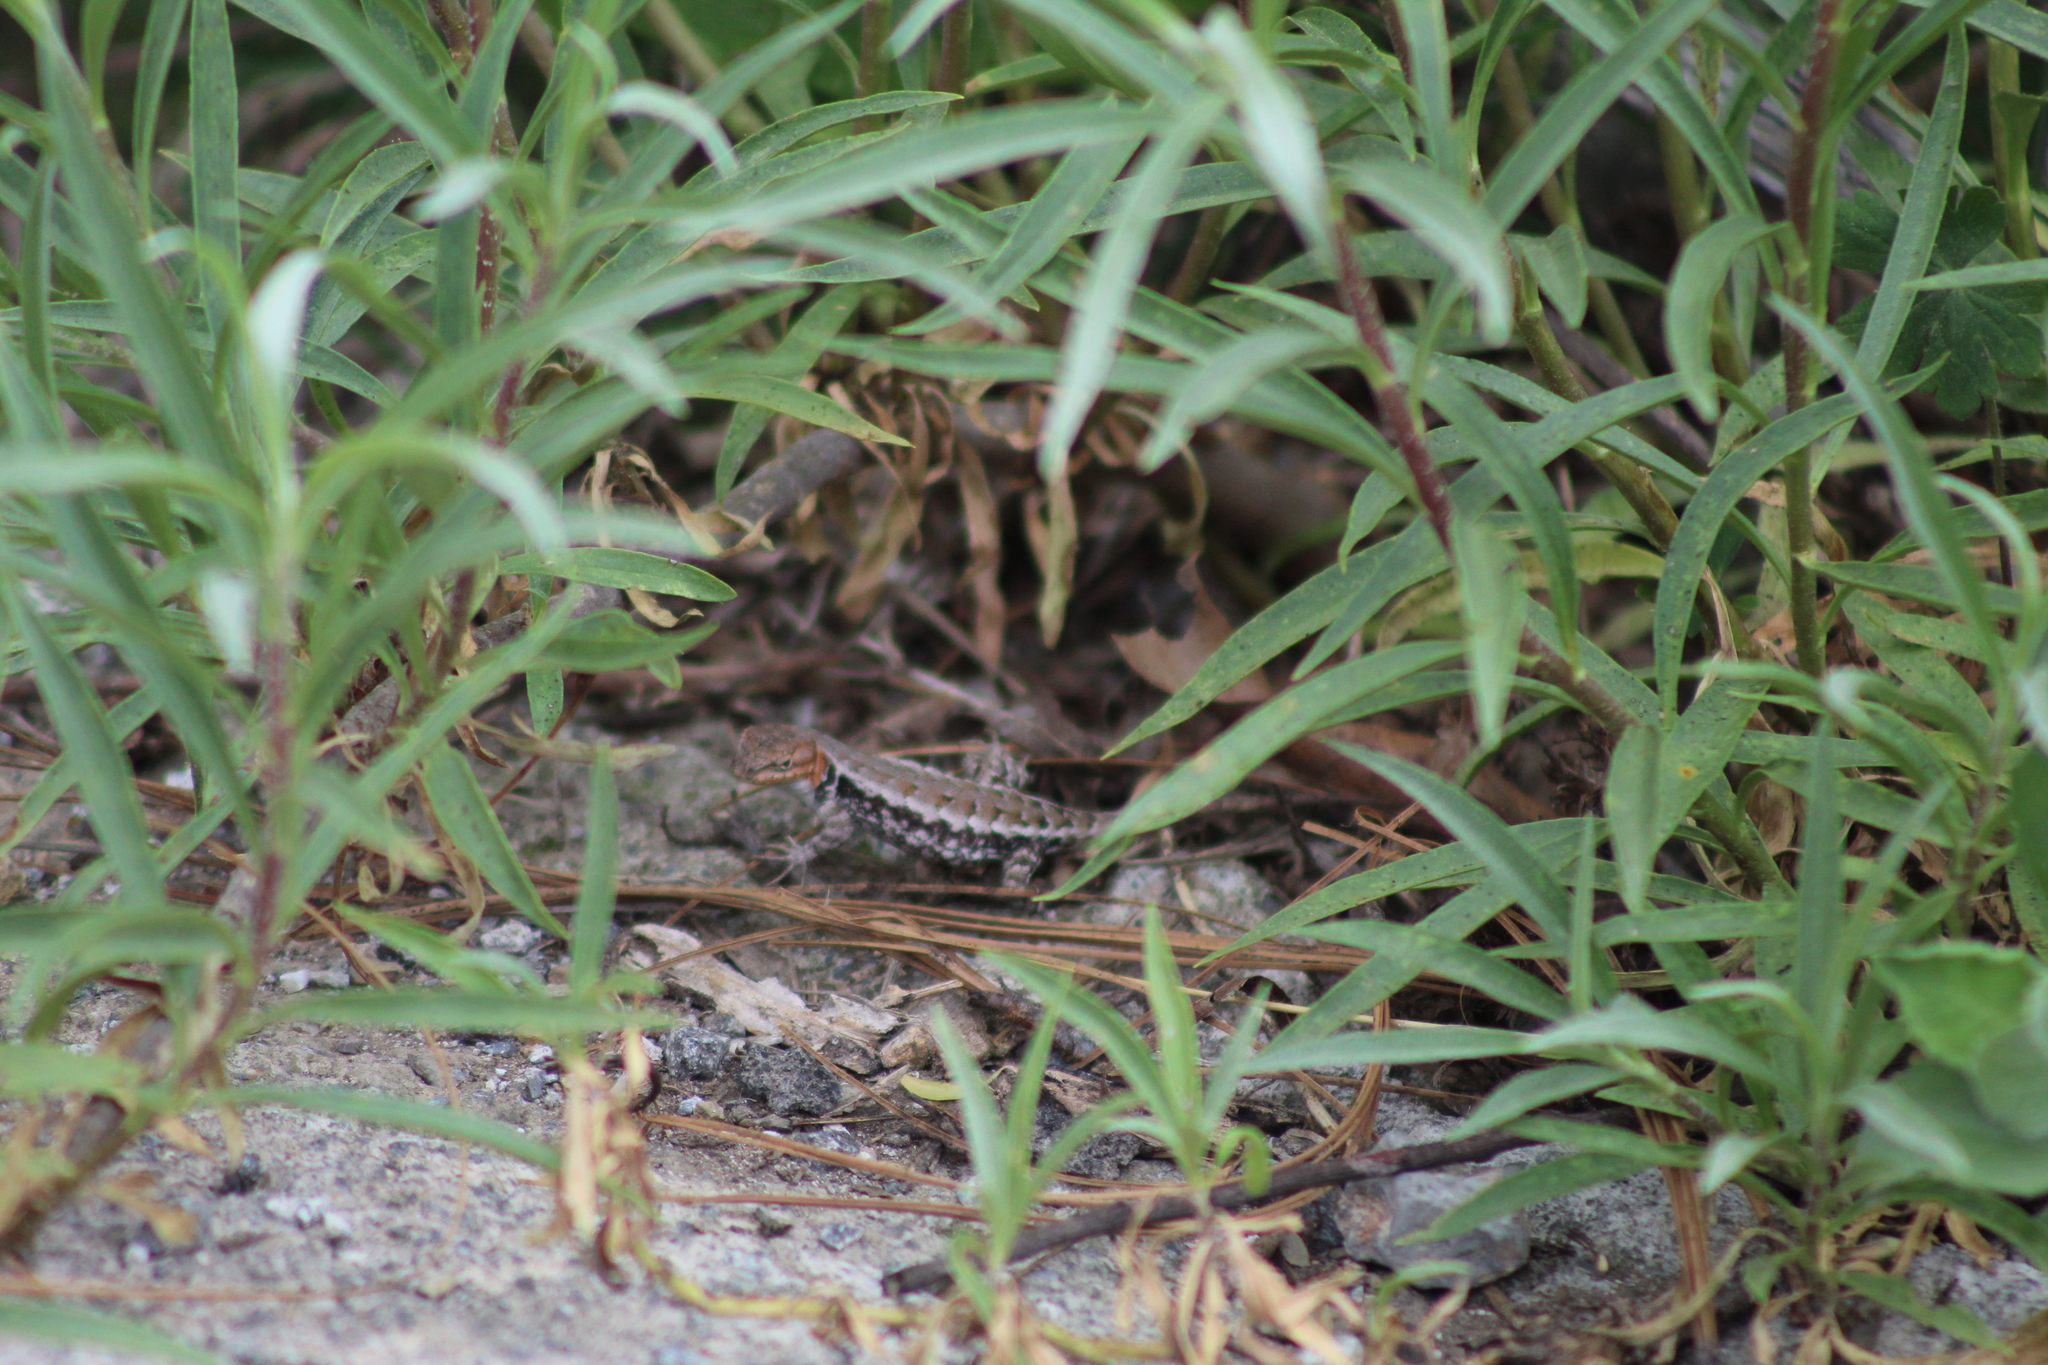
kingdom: Animalia
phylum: Chordata
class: Squamata
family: Phrynosomatidae
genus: Sceloporus
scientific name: Sceloporus parvus
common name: Bluebelly lizard
